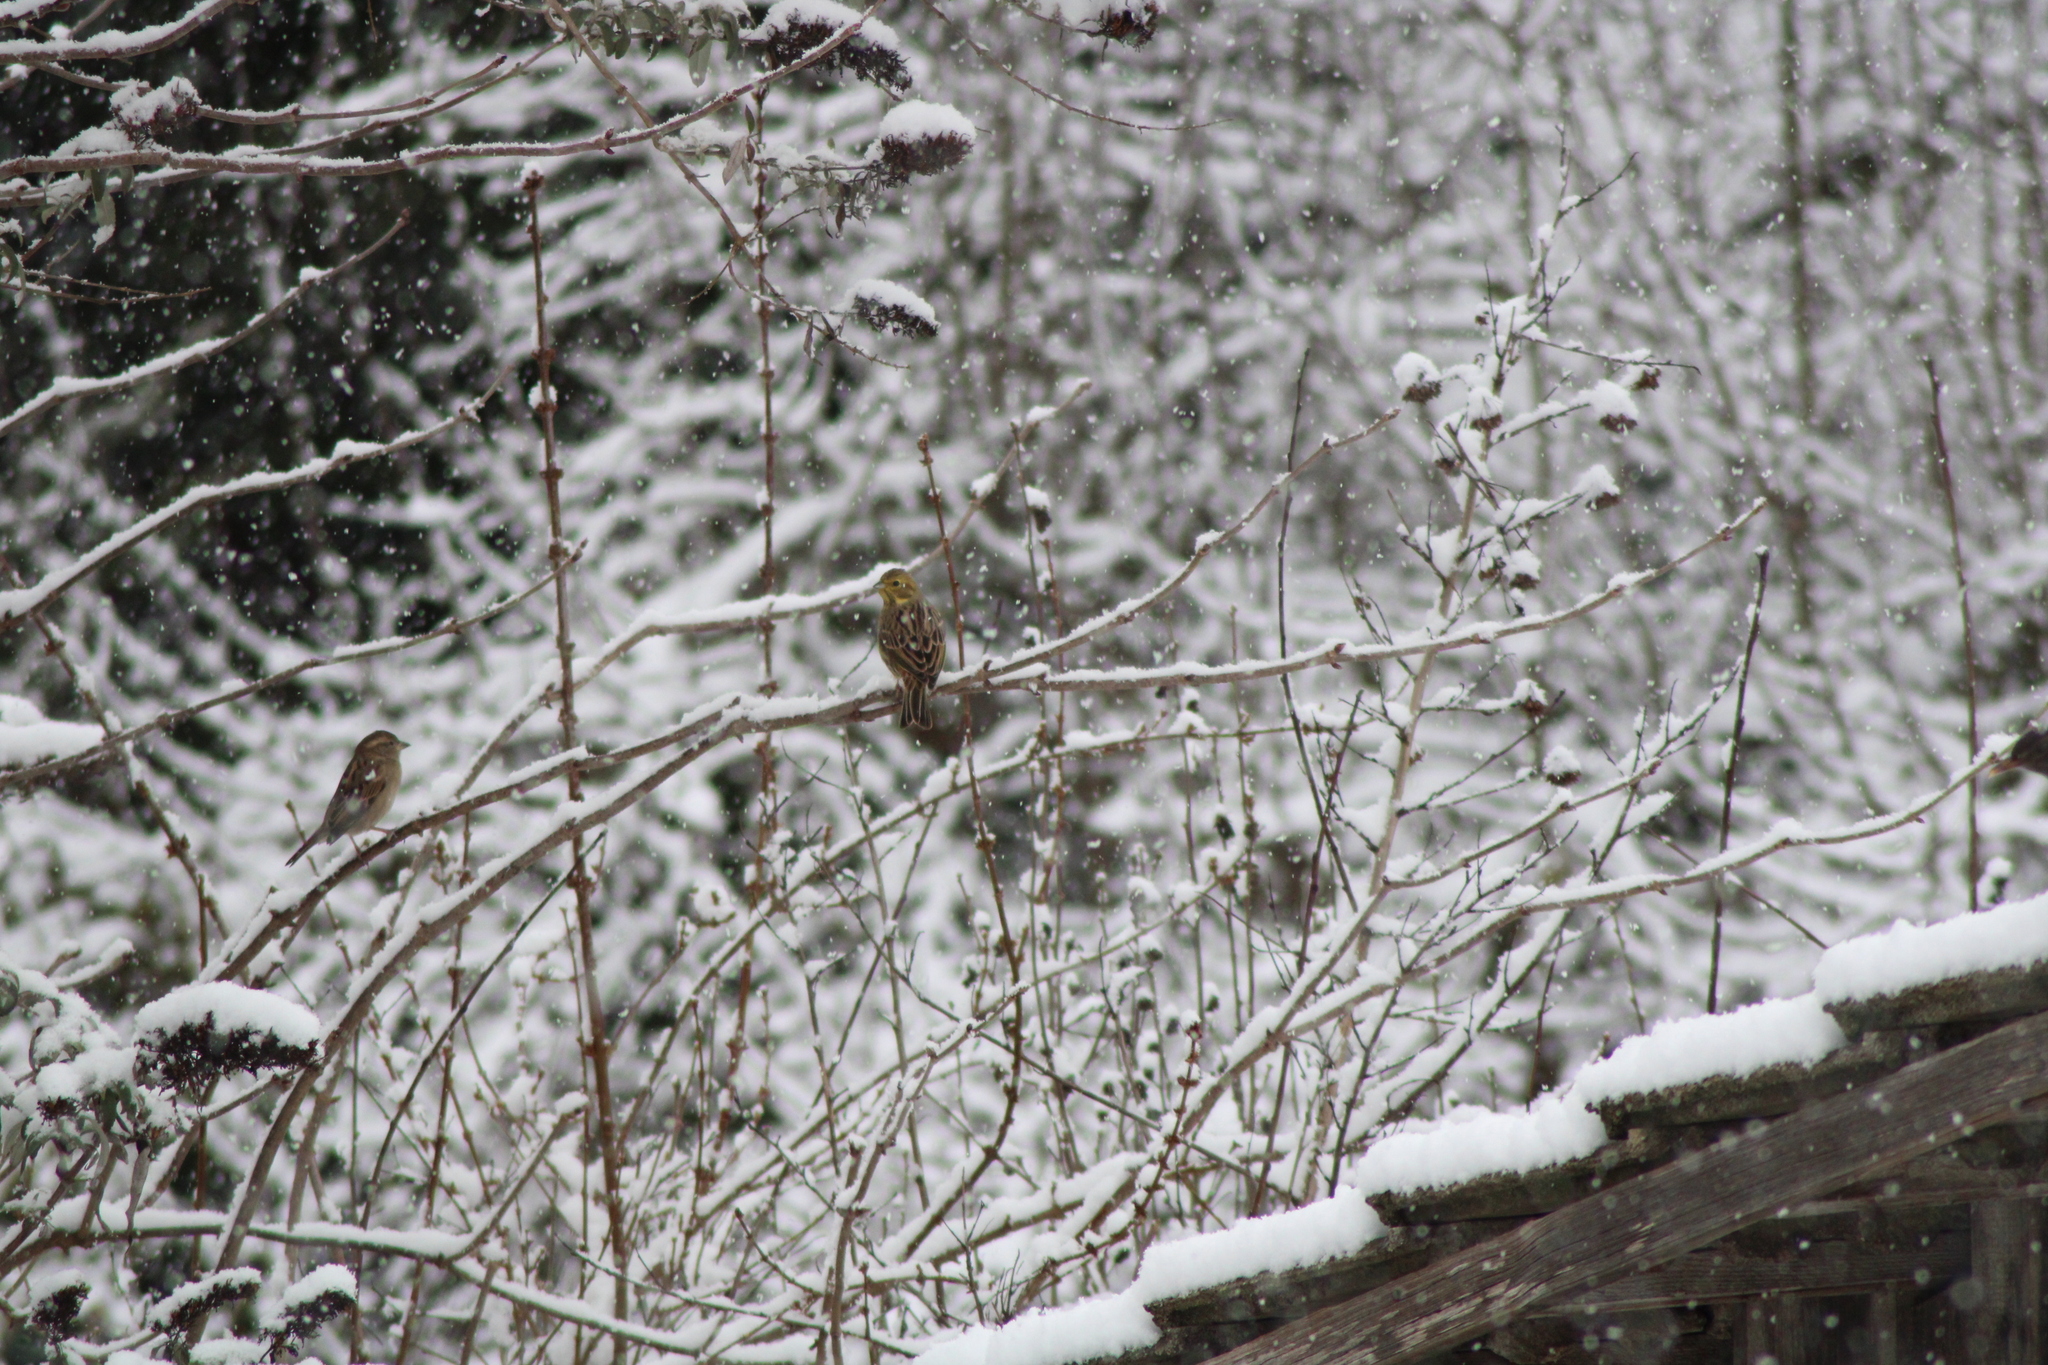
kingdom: Animalia
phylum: Chordata
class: Aves
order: Passeriformes
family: Emberizidae
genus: Emberiza
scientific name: Emberiza citrinella
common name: Yellowhammer
